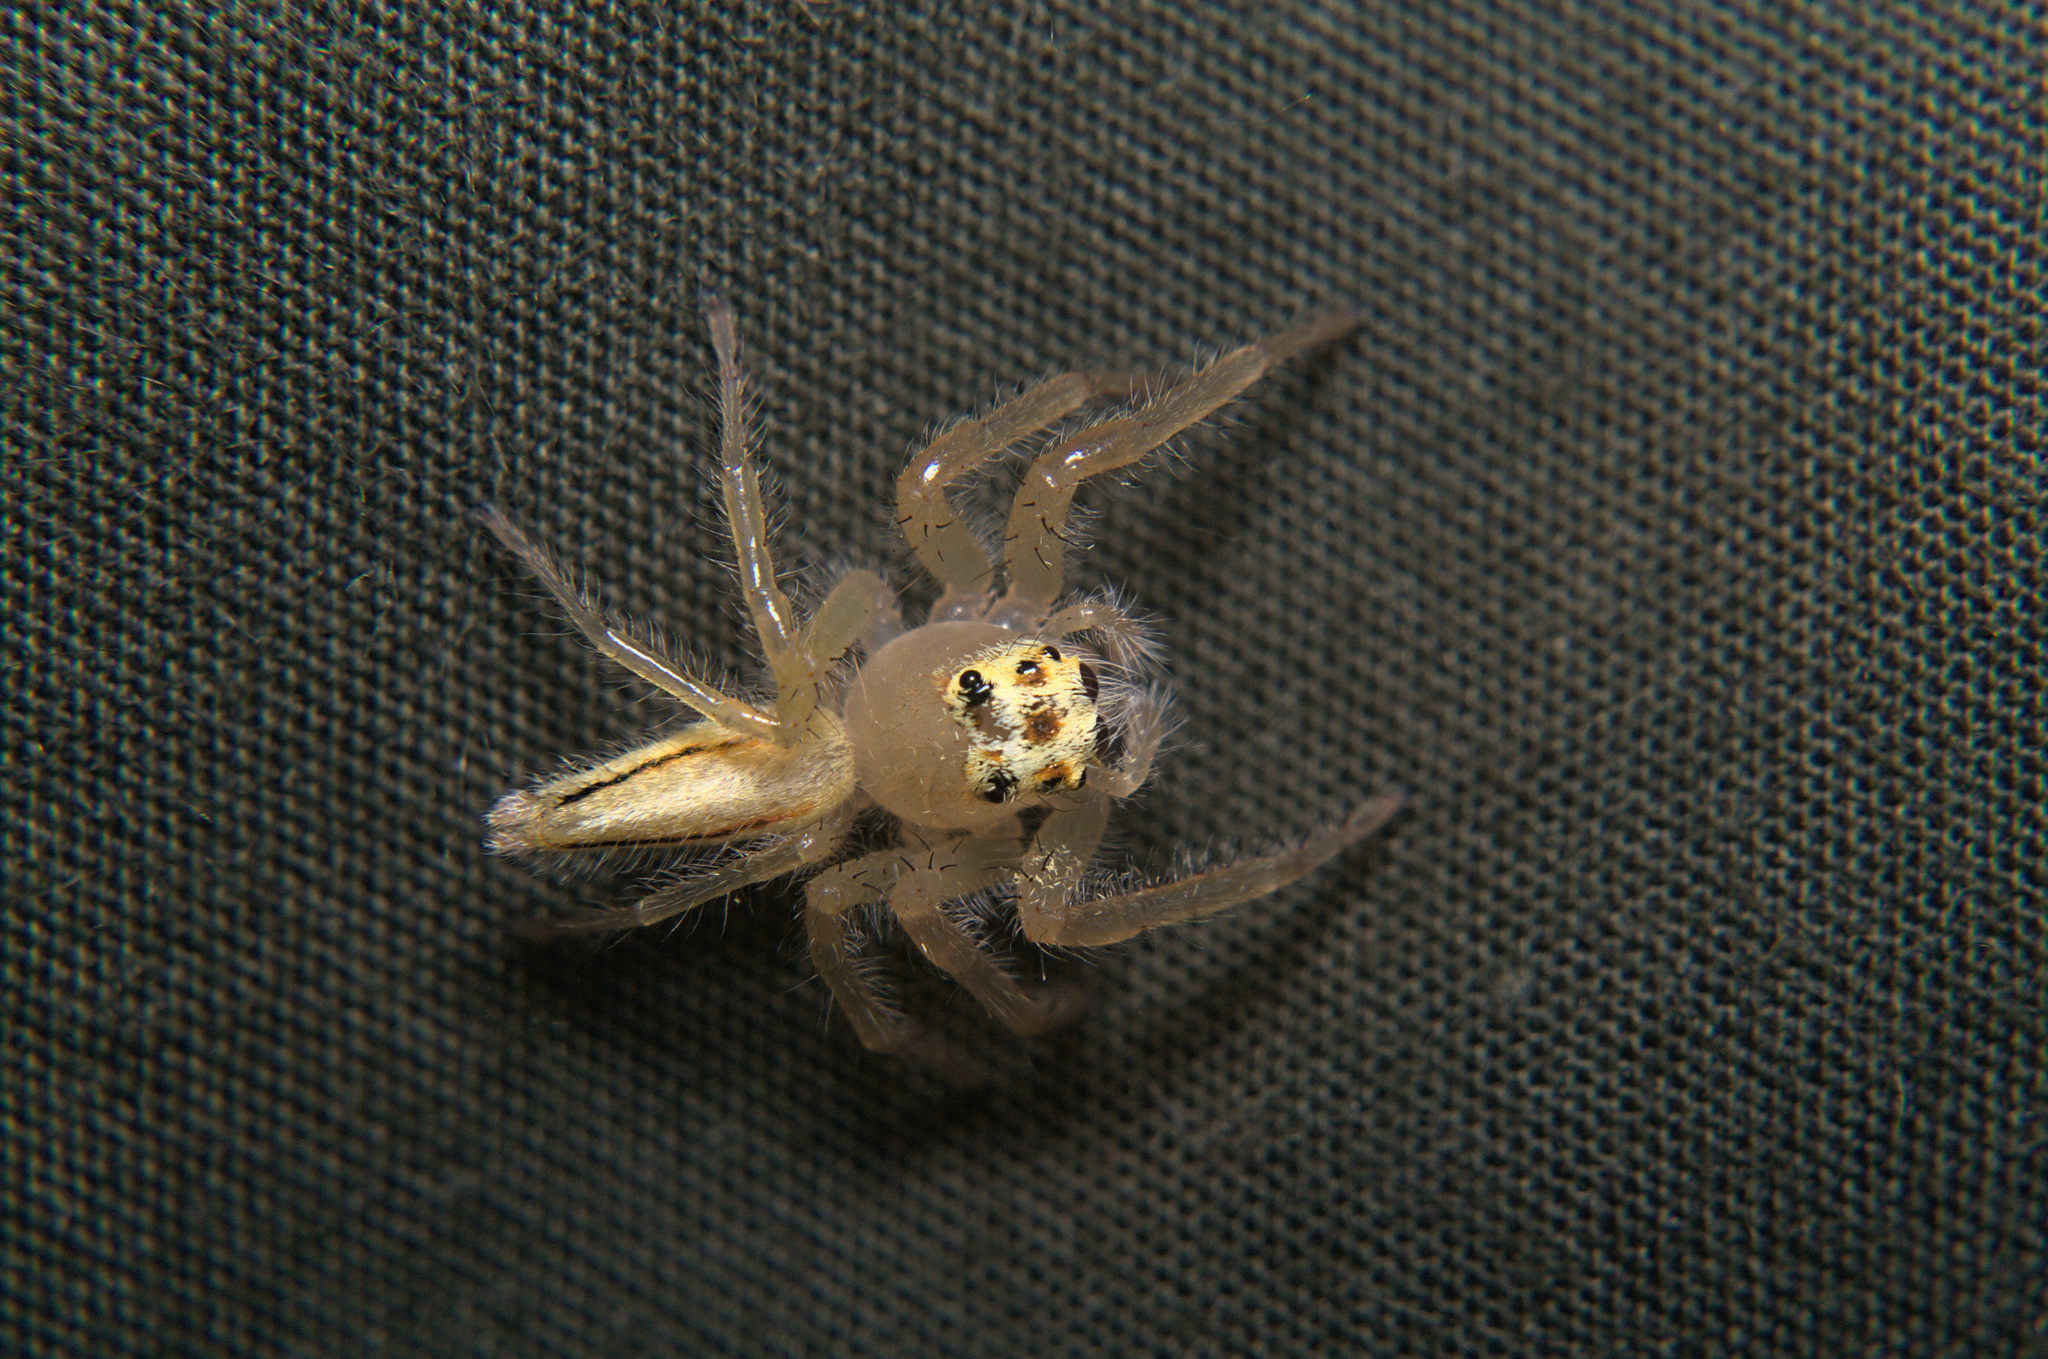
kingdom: Animalia
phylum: Arthropoda
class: Arachnida
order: Araneae
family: Salticidae
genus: Telamonia
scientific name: Telamonia dimidiata
